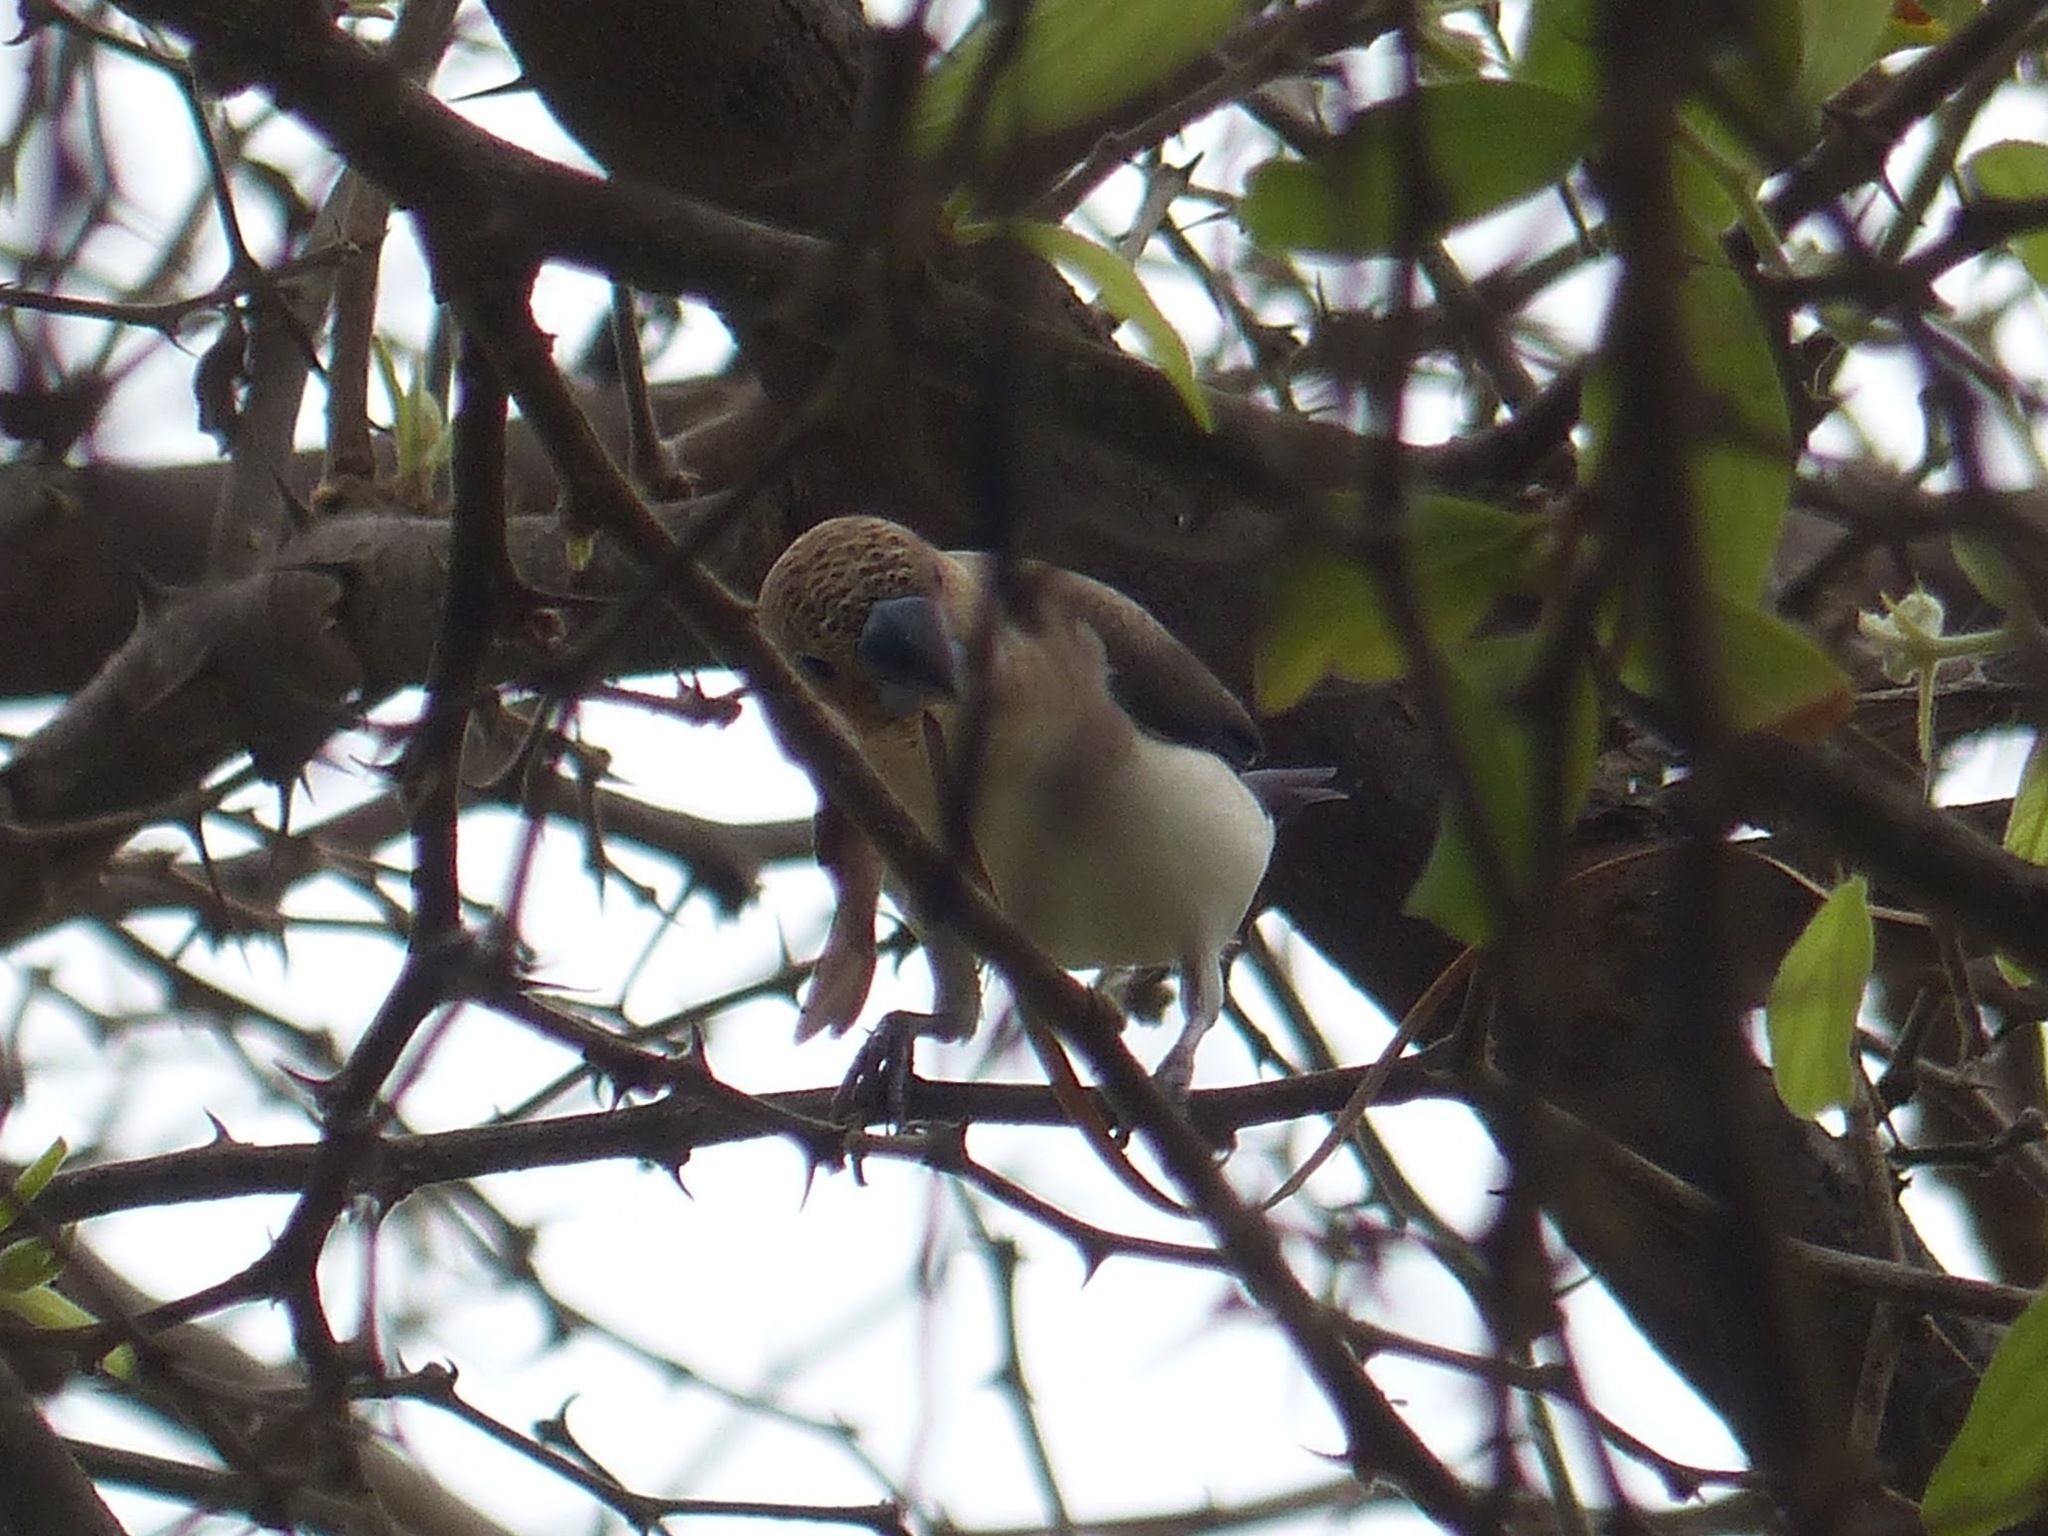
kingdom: Animalia
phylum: Chordata
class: Aves
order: Passeriformes
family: Estrildidae
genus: Euodice
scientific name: Euodice cantans
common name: African silverbill
